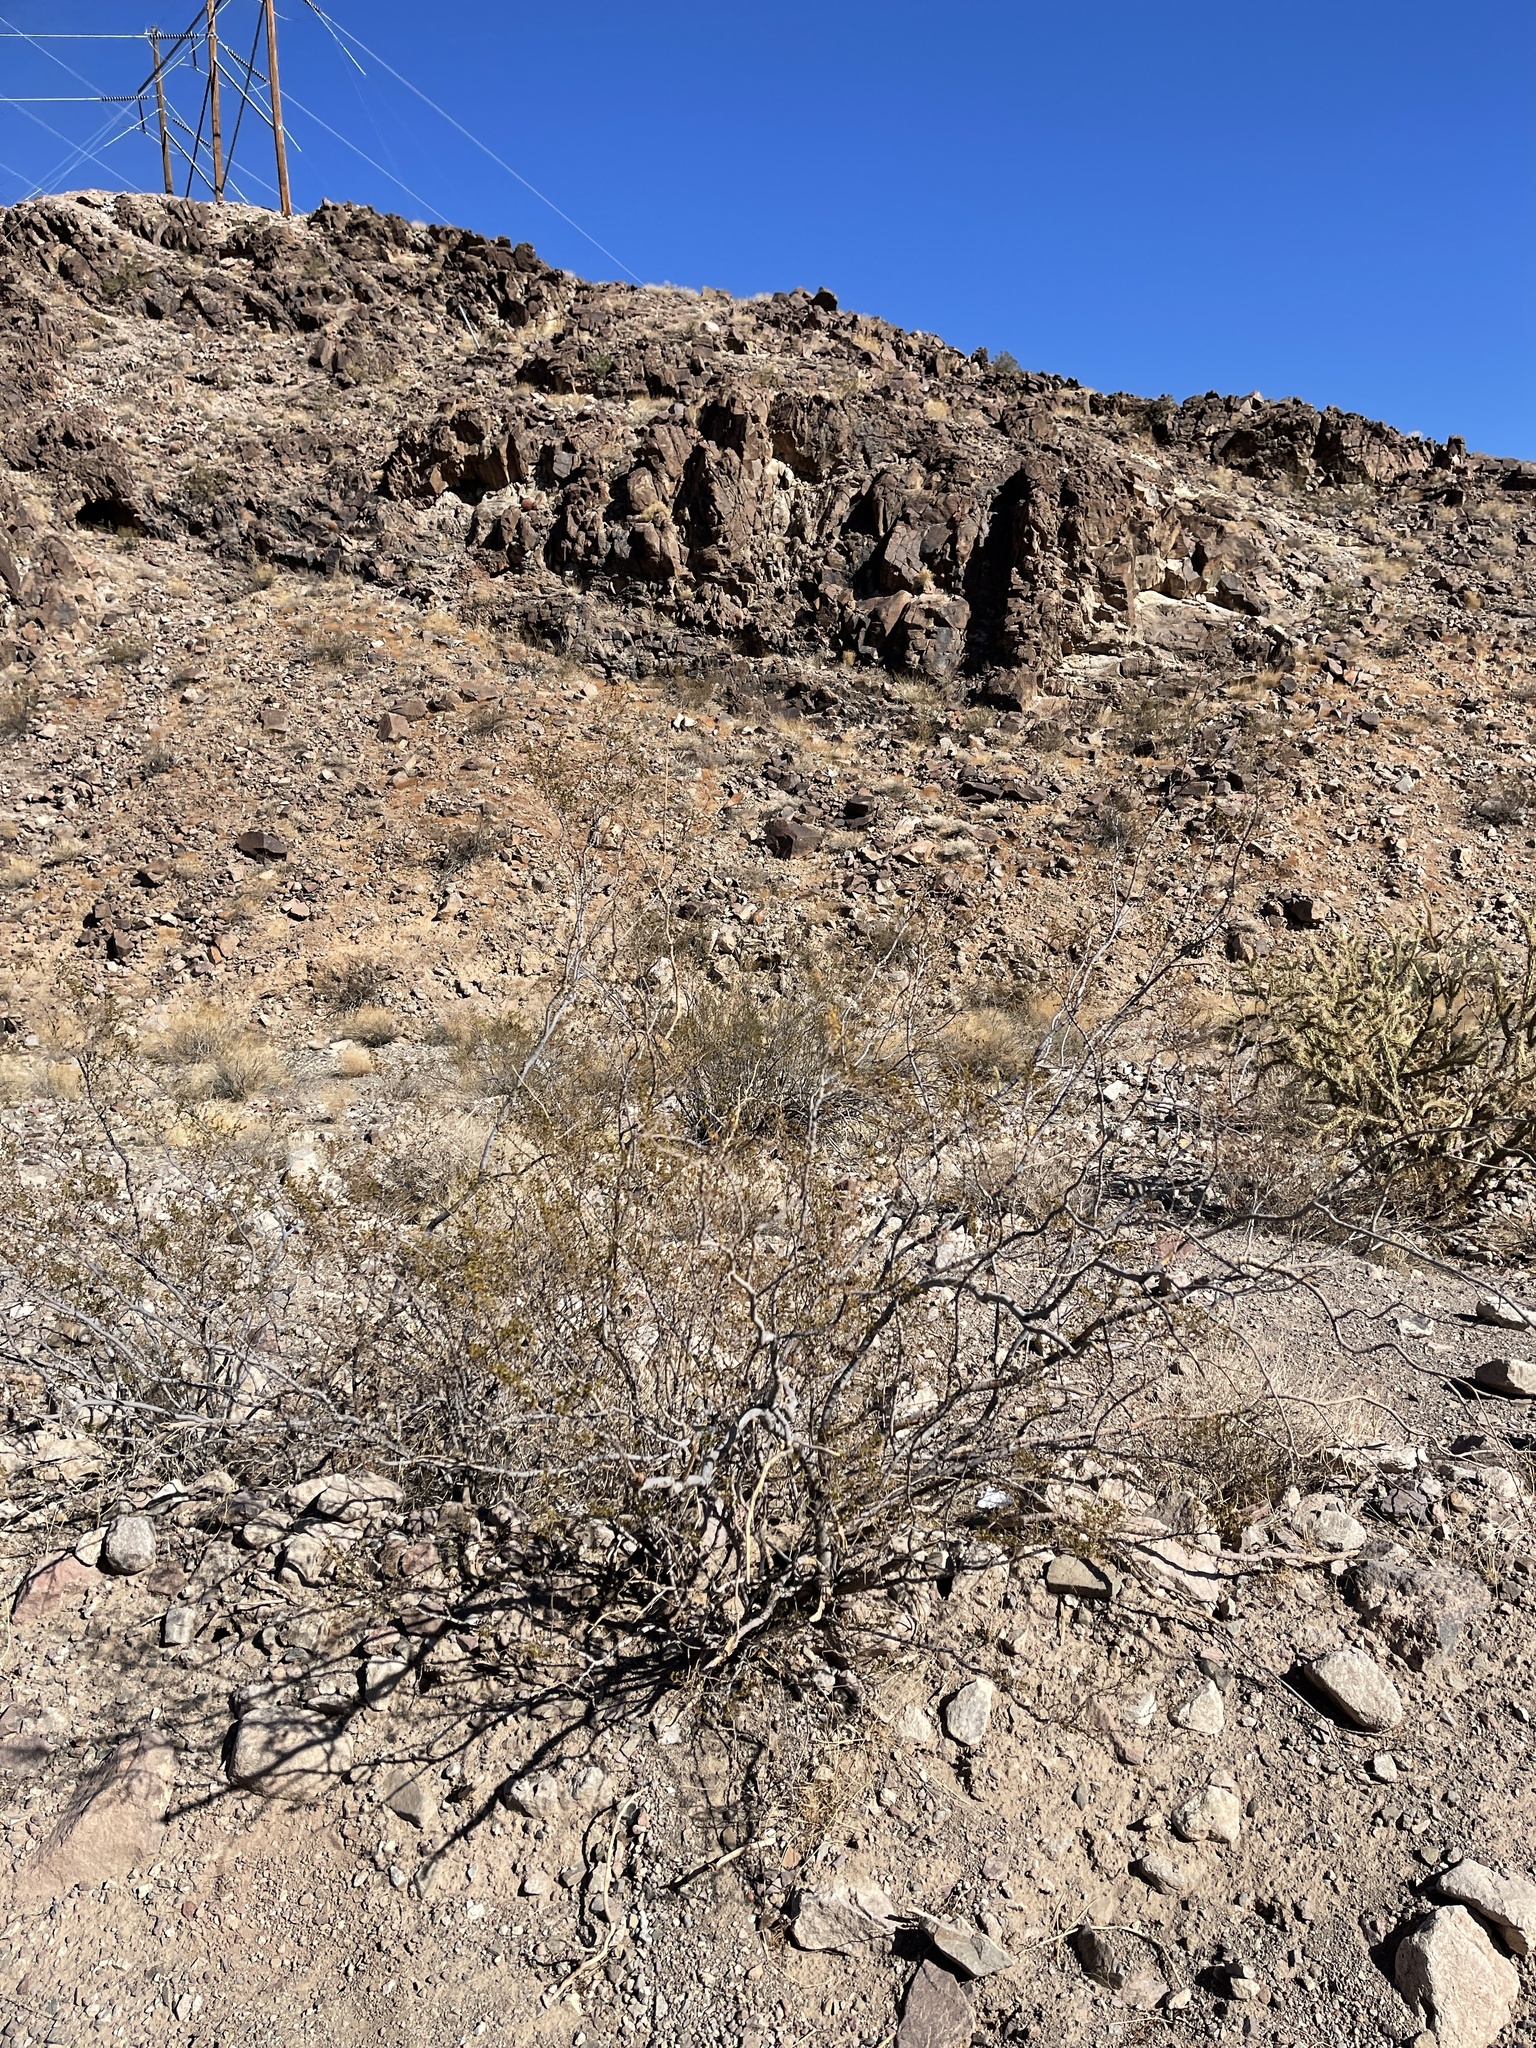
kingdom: Plantae
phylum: Tracheophyta
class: Magnoliopsida
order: Zygophyllales
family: Zygophyllaceae
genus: Larrea
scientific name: Larrea tridentata
